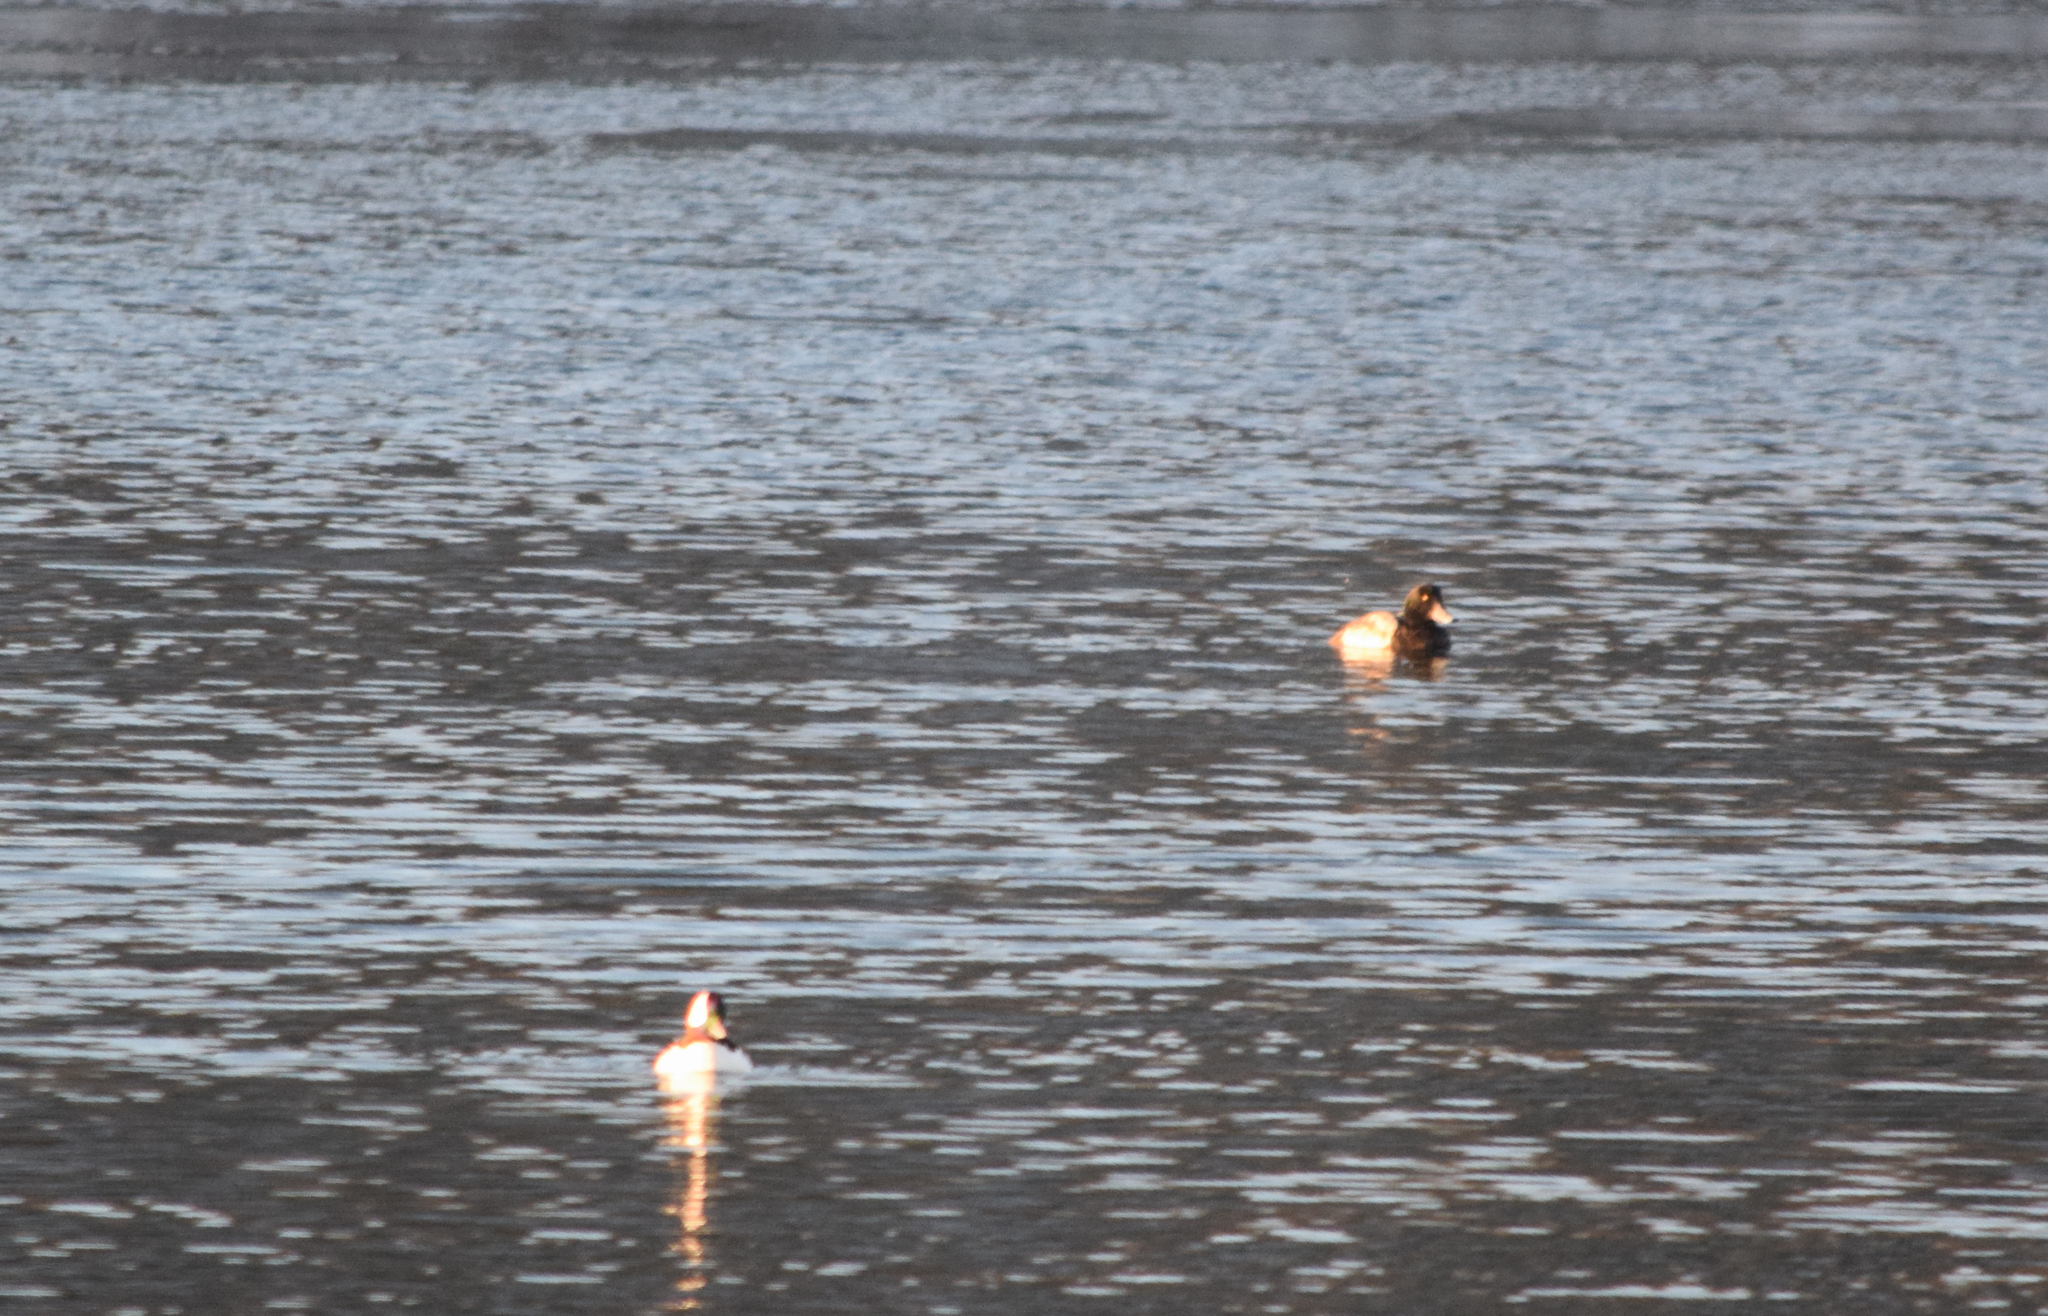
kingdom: Animalia
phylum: Chordata
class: Aves
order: Anseriformes
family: Anatidae
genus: Bucephala
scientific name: Bucephala albeola
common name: Bufflehead
